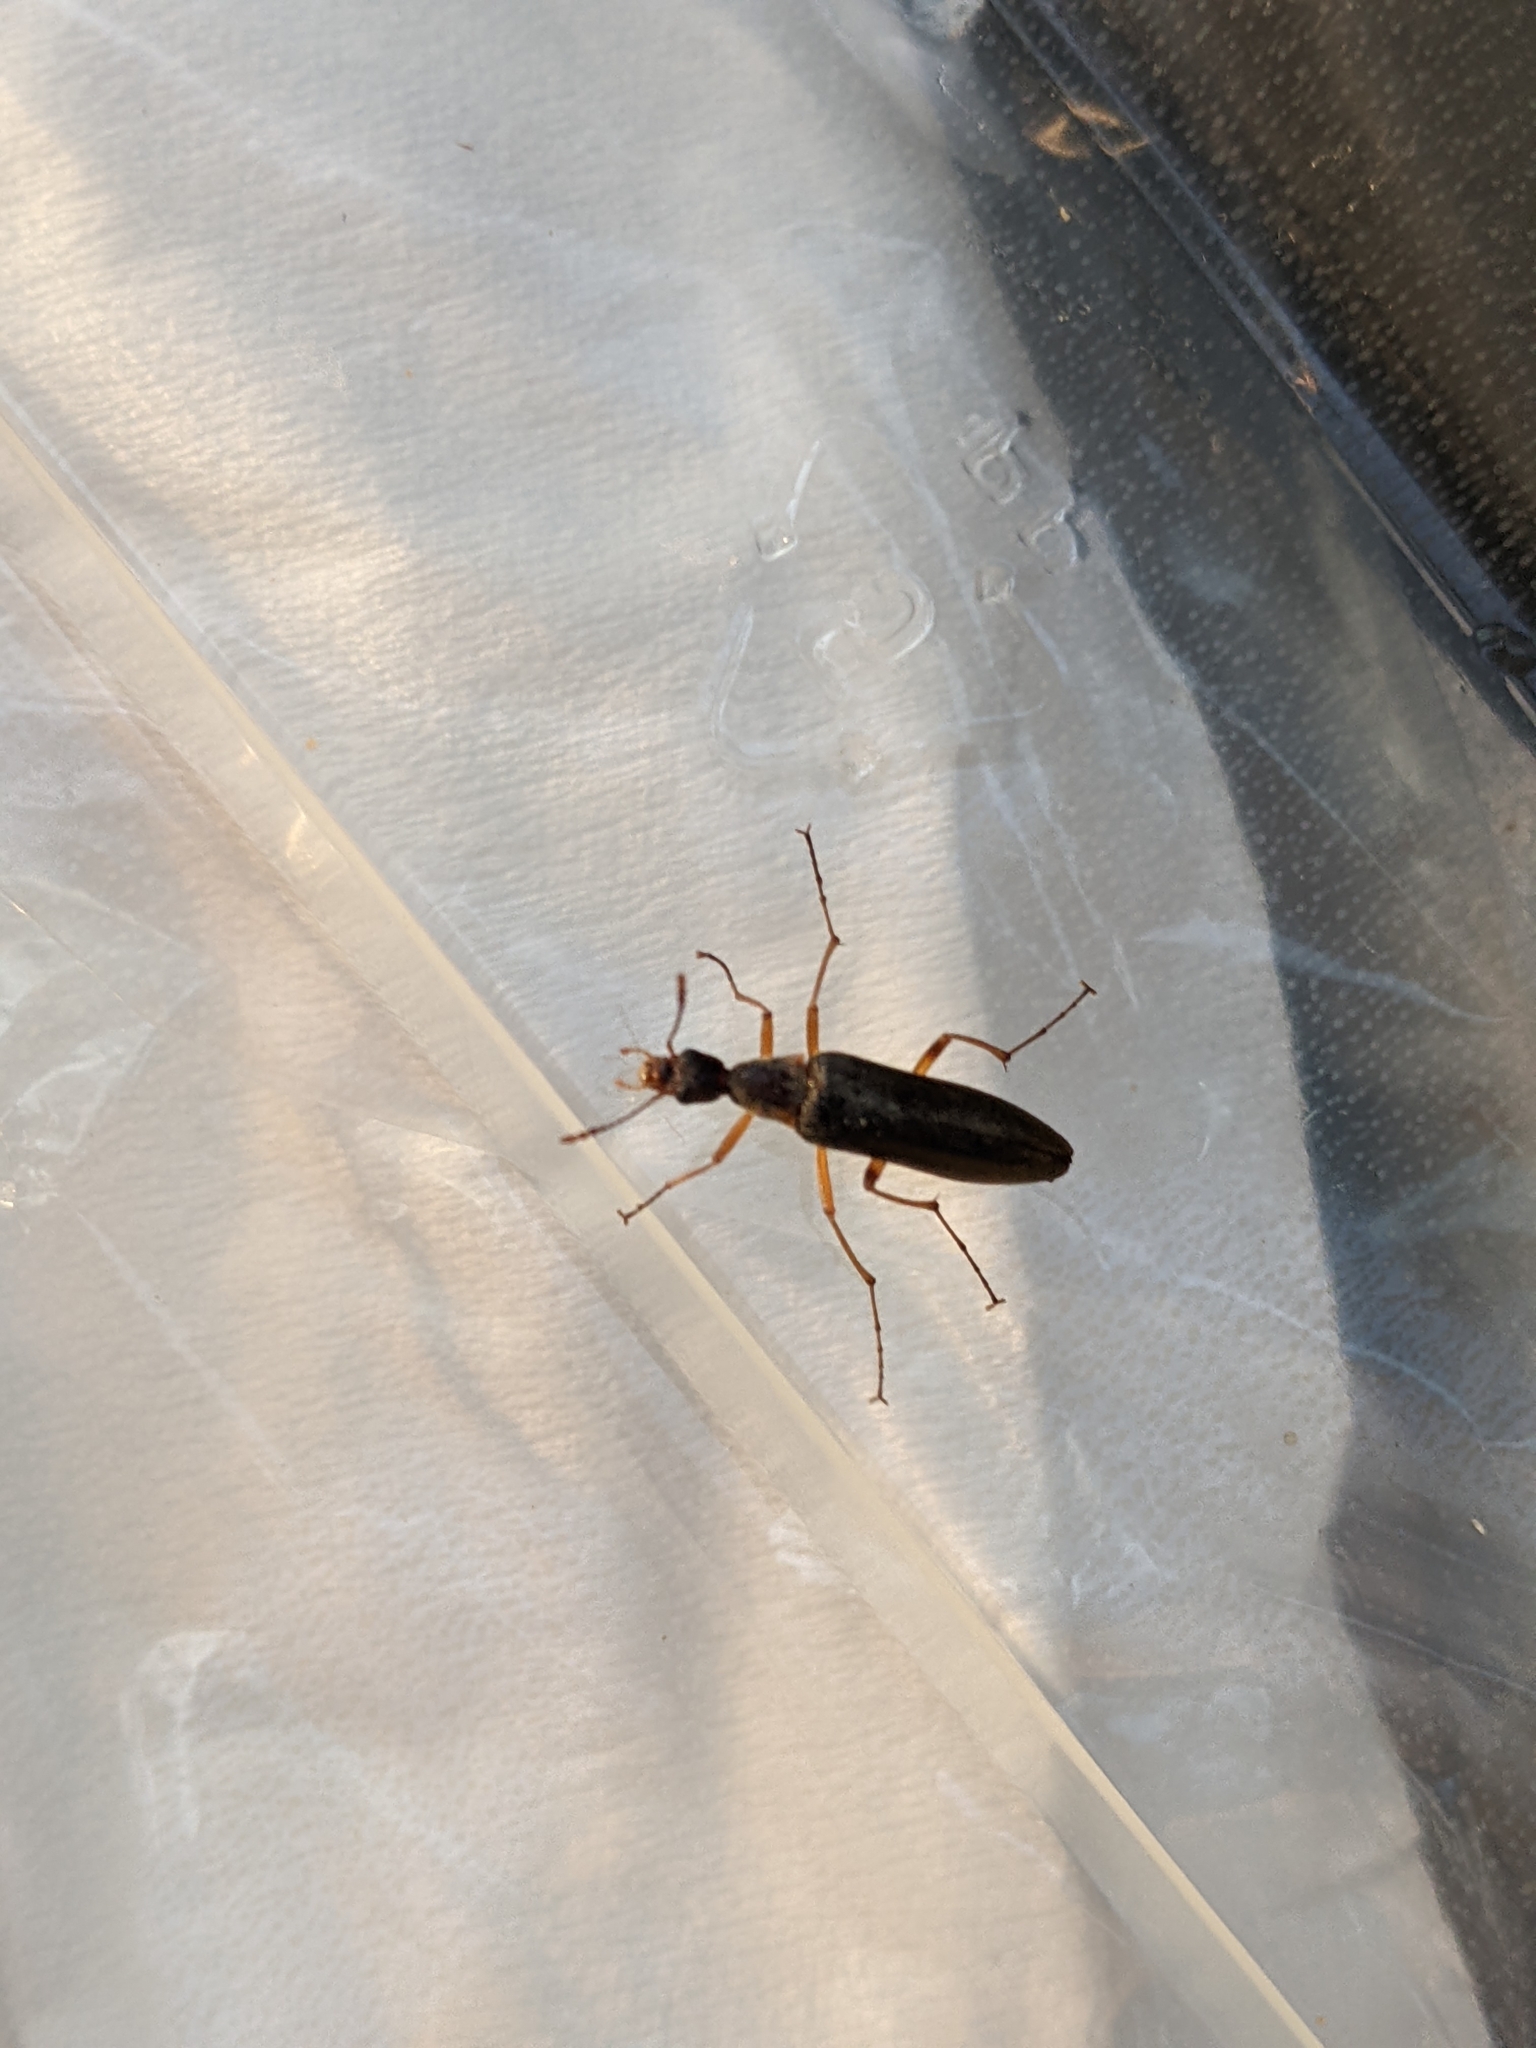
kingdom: Animalia
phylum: Arthropoda
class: Insecta
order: Coleoptera
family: Stenotrachelidae
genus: Cephaloon
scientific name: Cephaloon lepturides
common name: False leptura beetle
